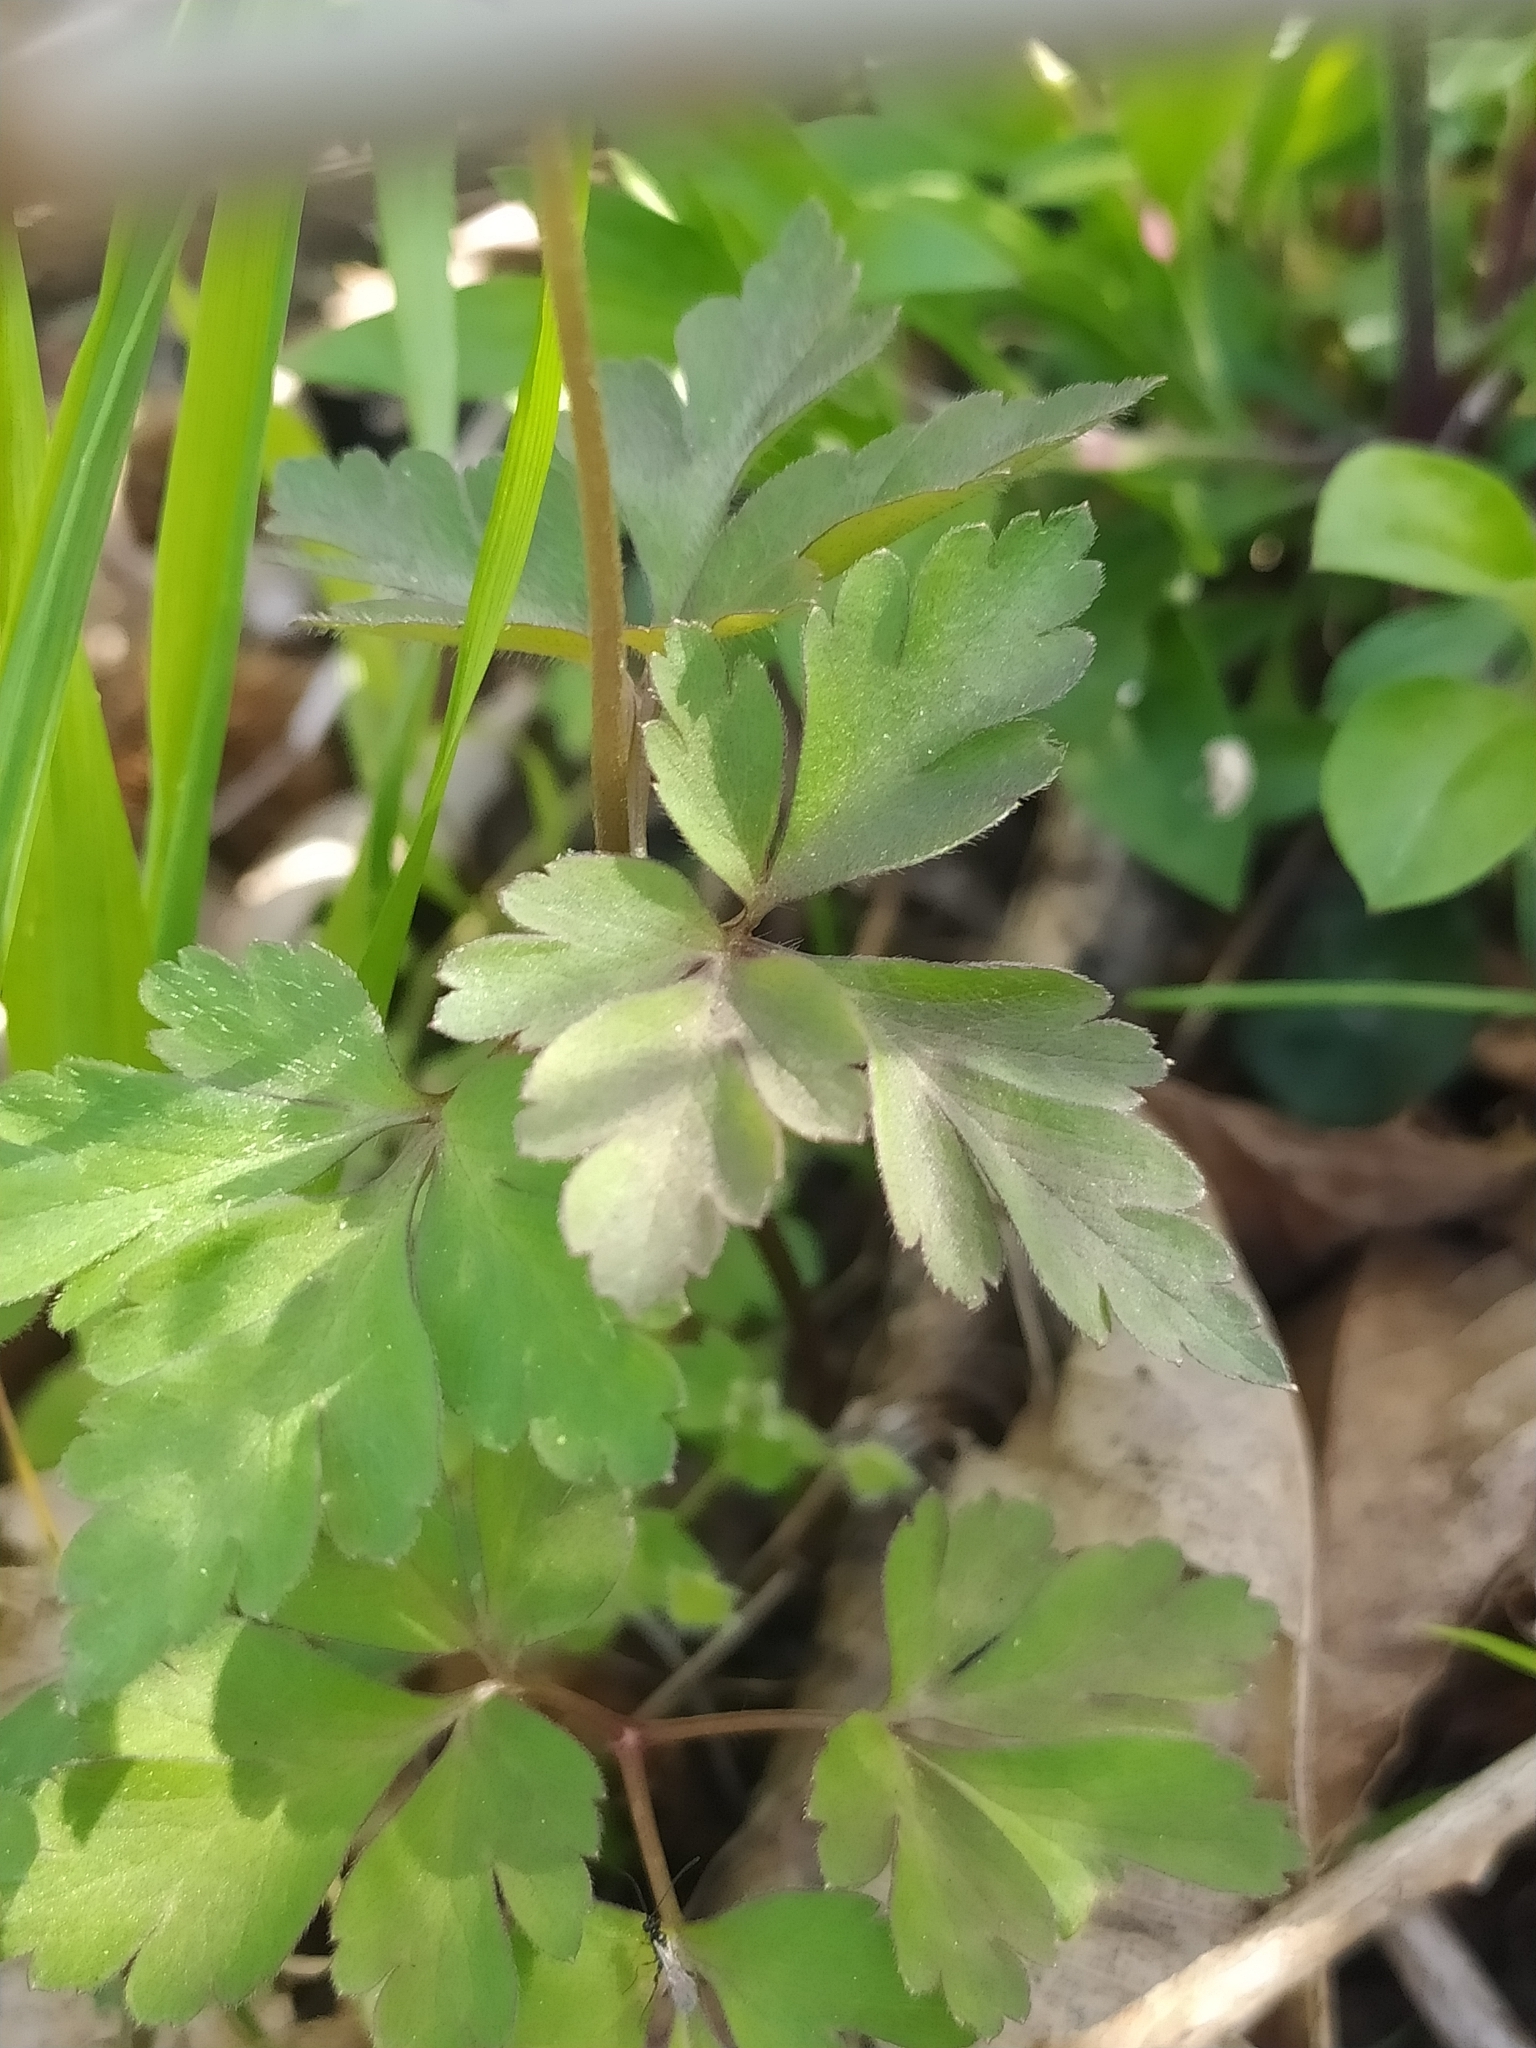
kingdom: Plantae
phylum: Tracheophyta
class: Magnoliopsida
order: Ranunculales
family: Ranunculaceae
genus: Anemone
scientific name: Anemone apennina
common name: Blue anemone
